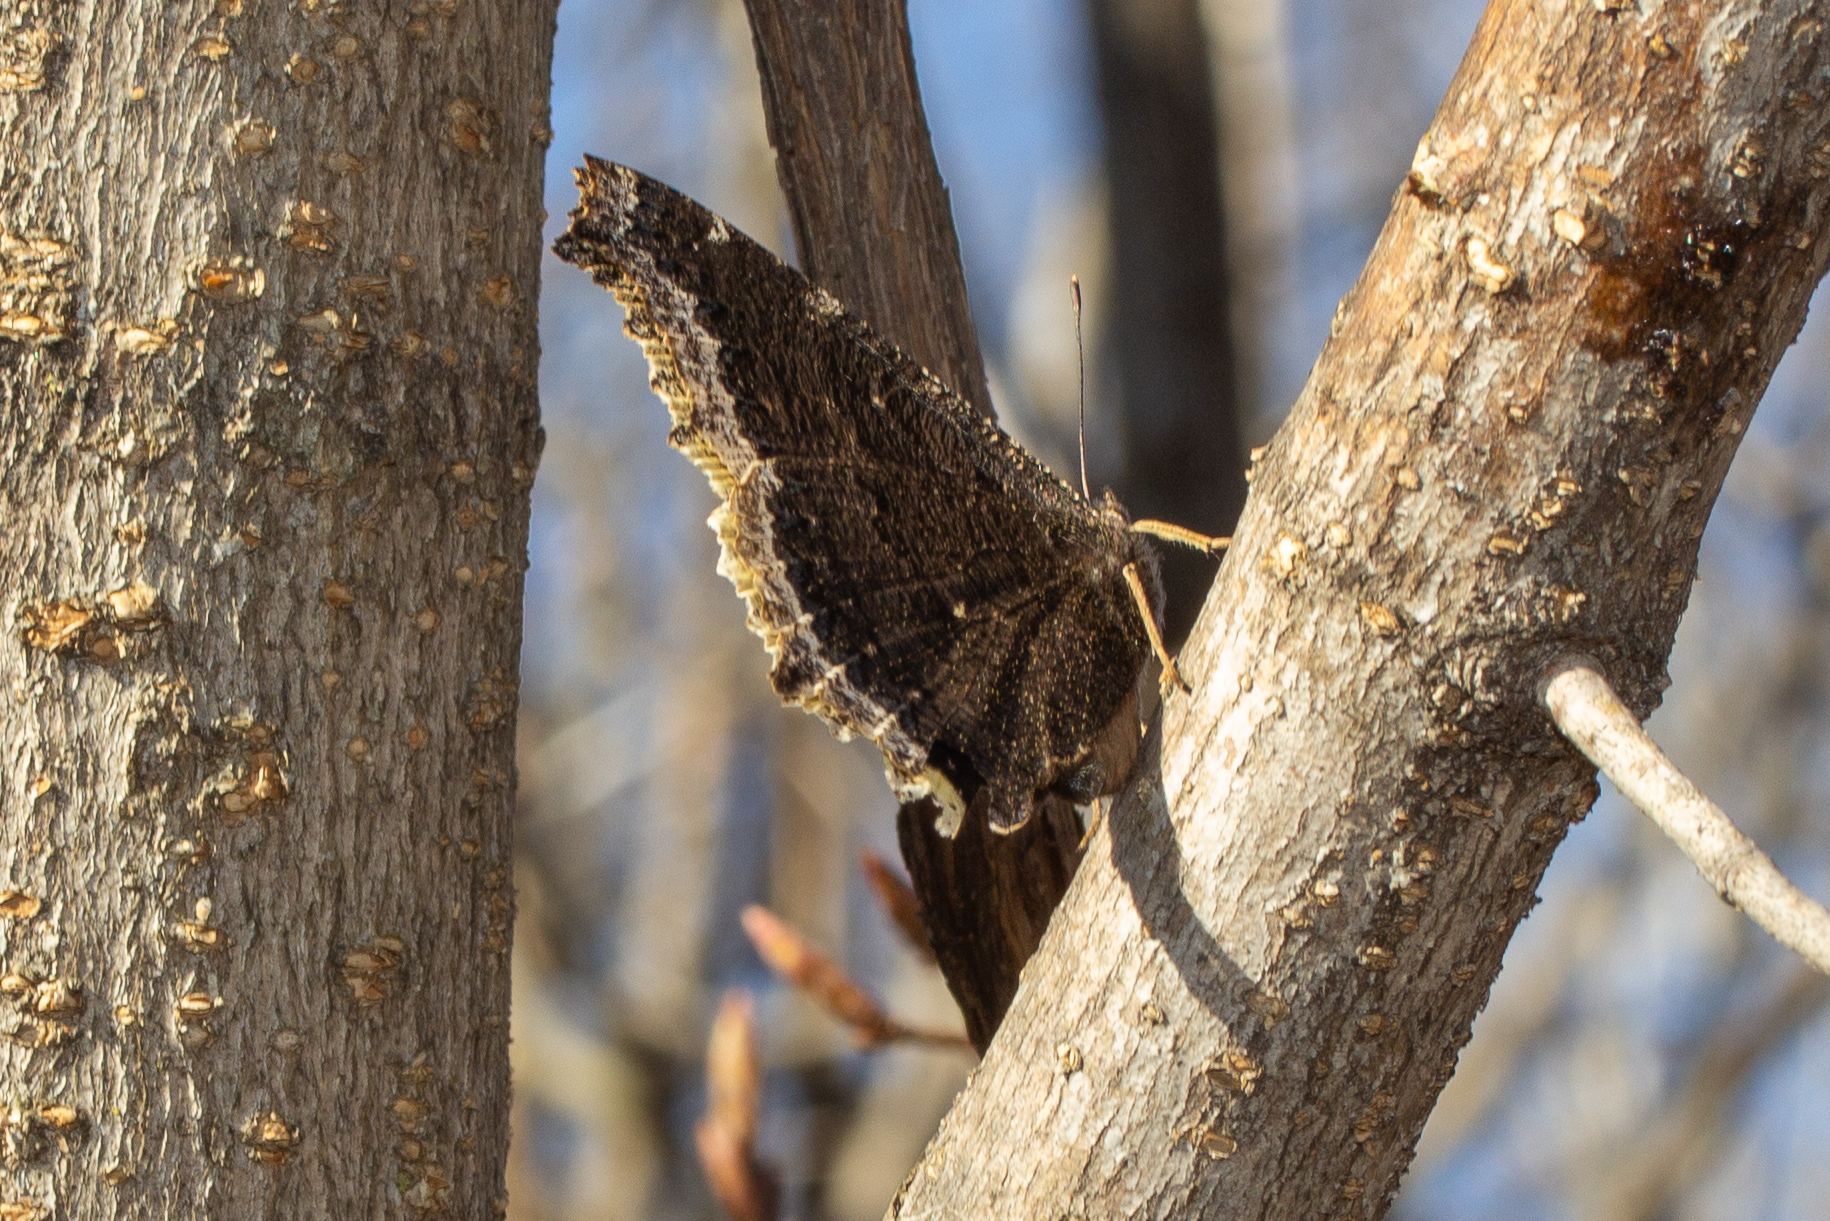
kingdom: Animalia
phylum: Arthropoda
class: Insecta
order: Lepidoptera
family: Nymphalidae
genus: Nymphalis
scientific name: Nymphalis antiopa
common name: Camberwell beauty
